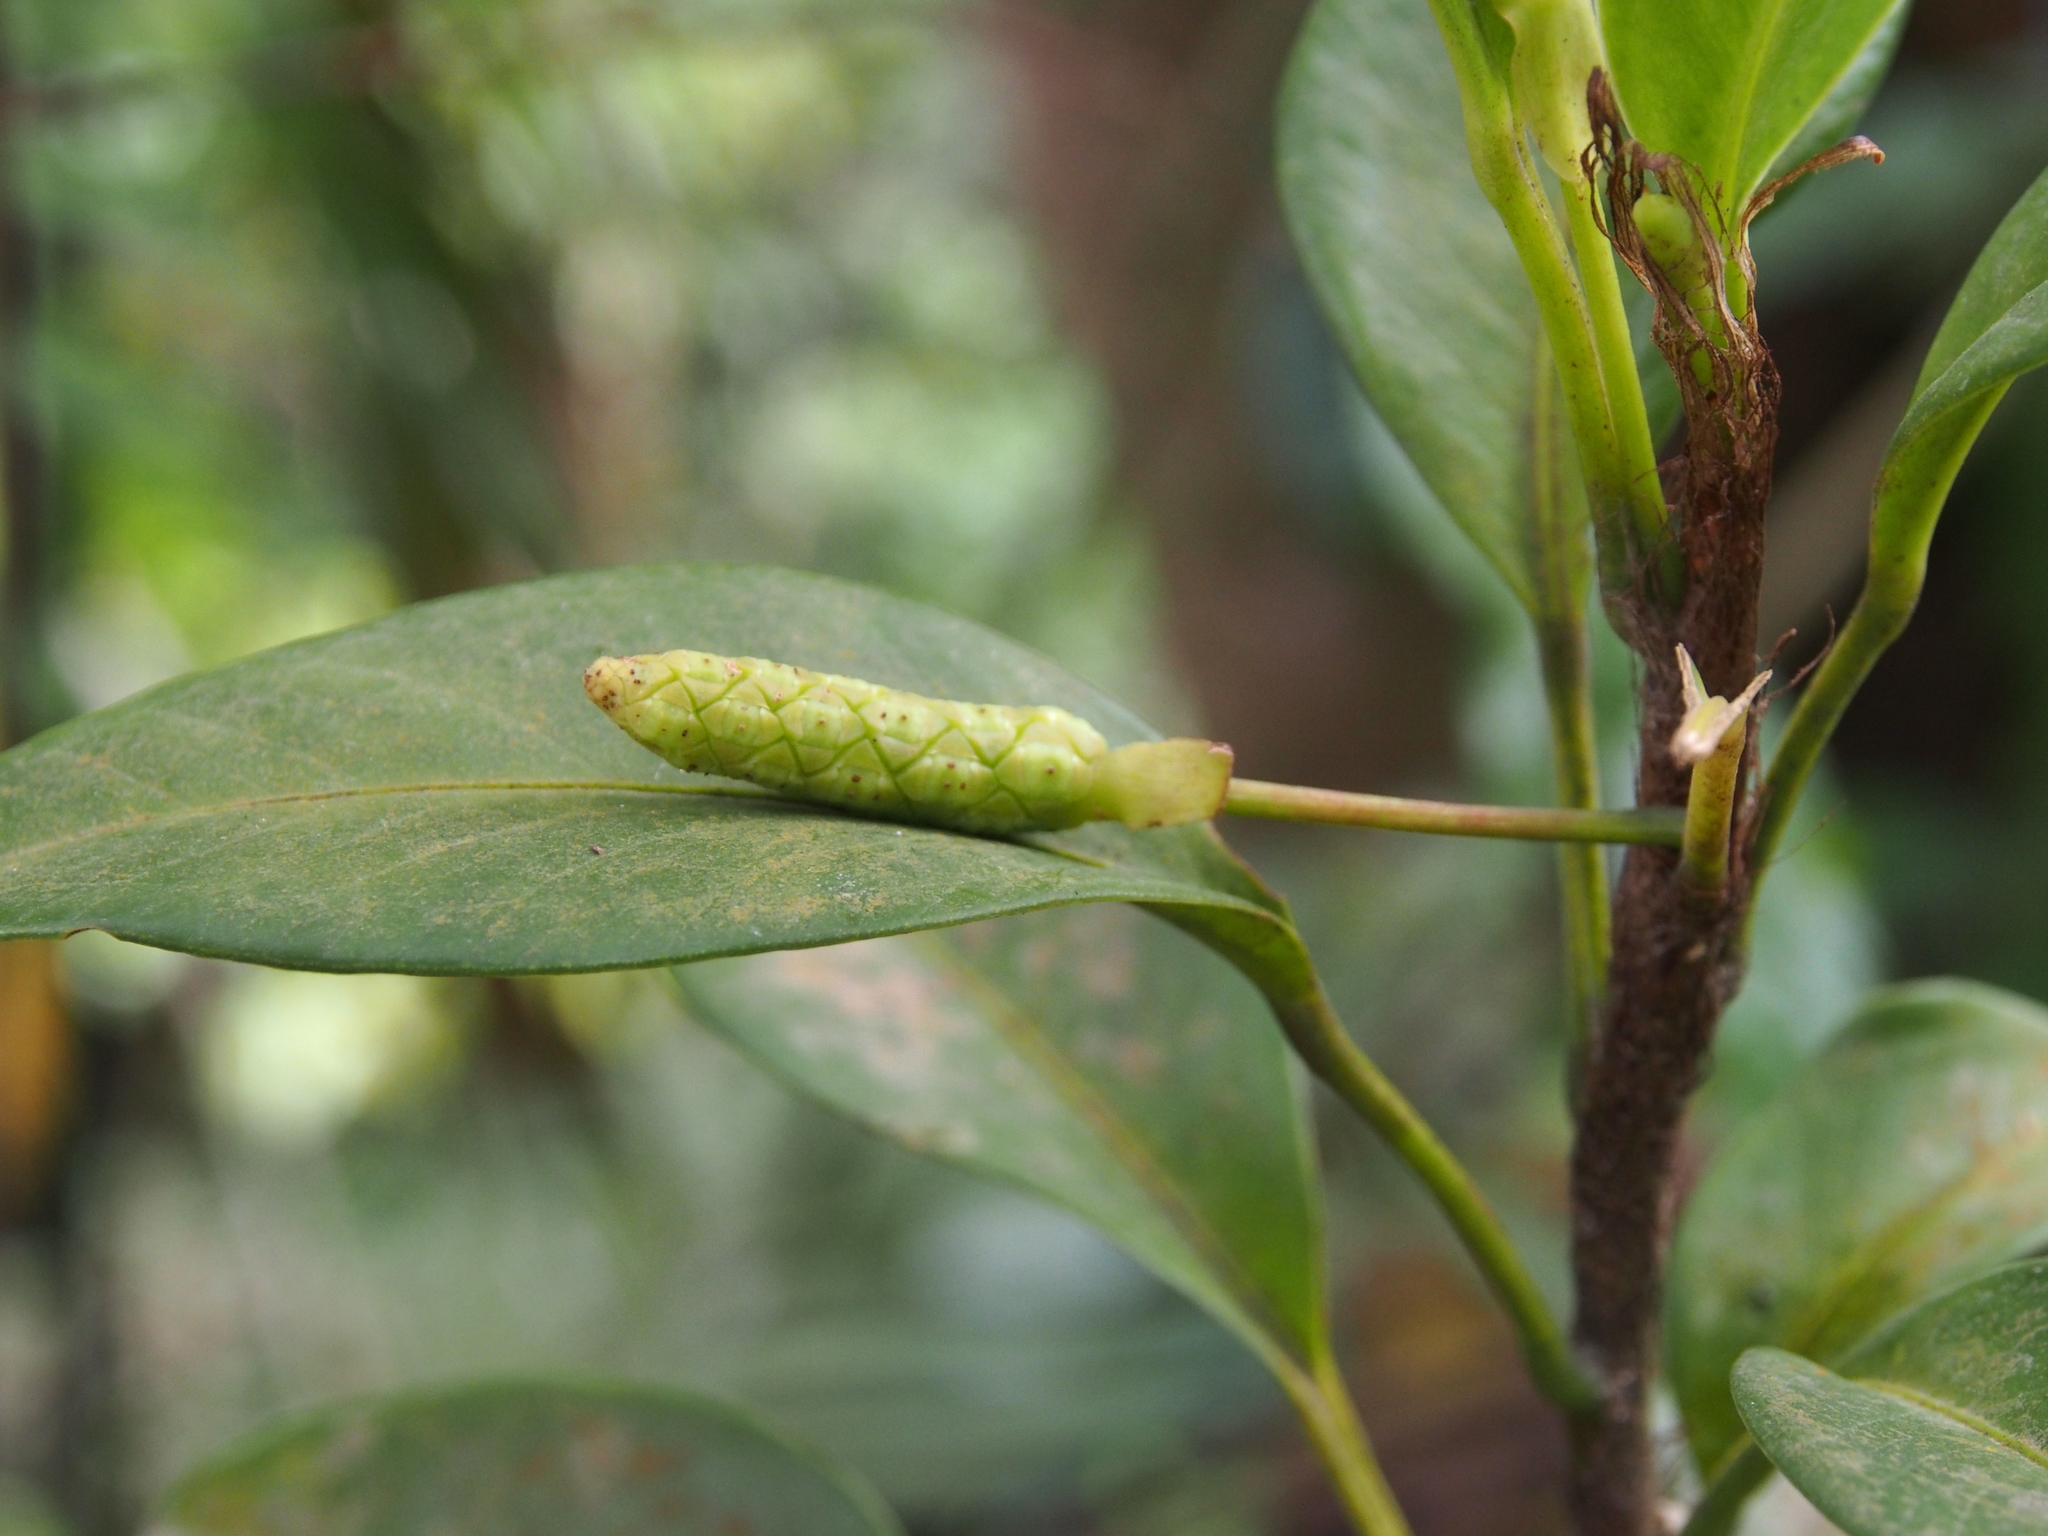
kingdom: Plantae
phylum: Tracheophyta
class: Liliopsida
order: Alismatales
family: Araceae
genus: Anthurium
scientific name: Anthurium scandens
